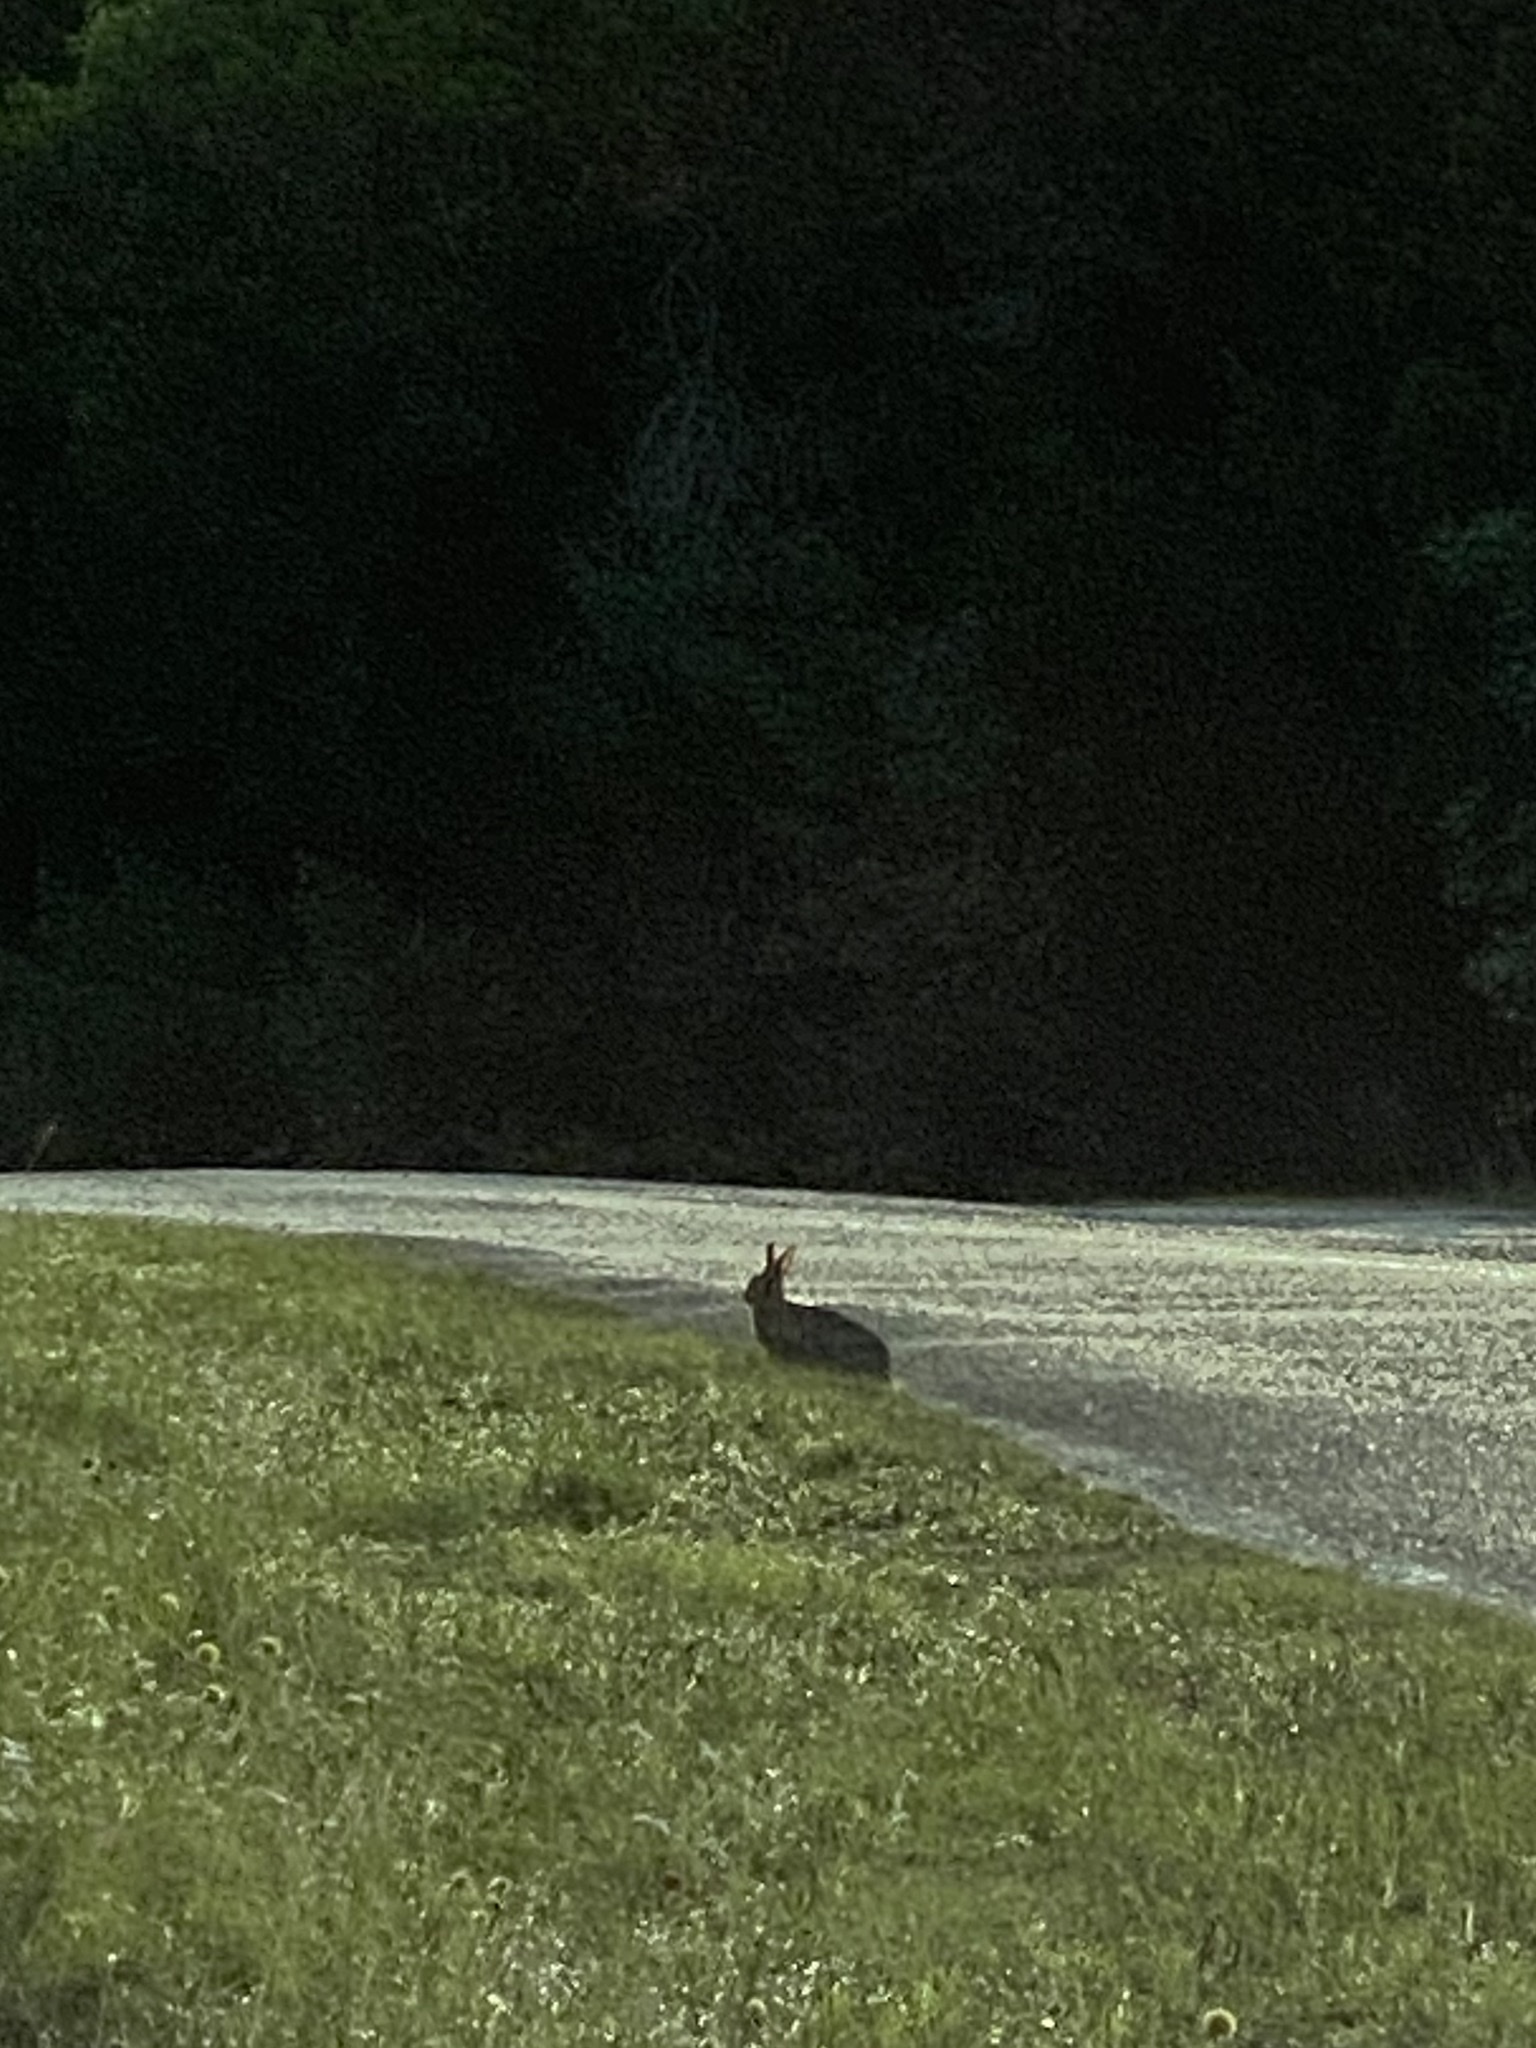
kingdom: Animalia
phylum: Chordata
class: Mammalia
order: Lagomorpha
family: Leporidae
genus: Sylvilagus
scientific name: Sylvilagus floridanus
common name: Eastern cottontail
